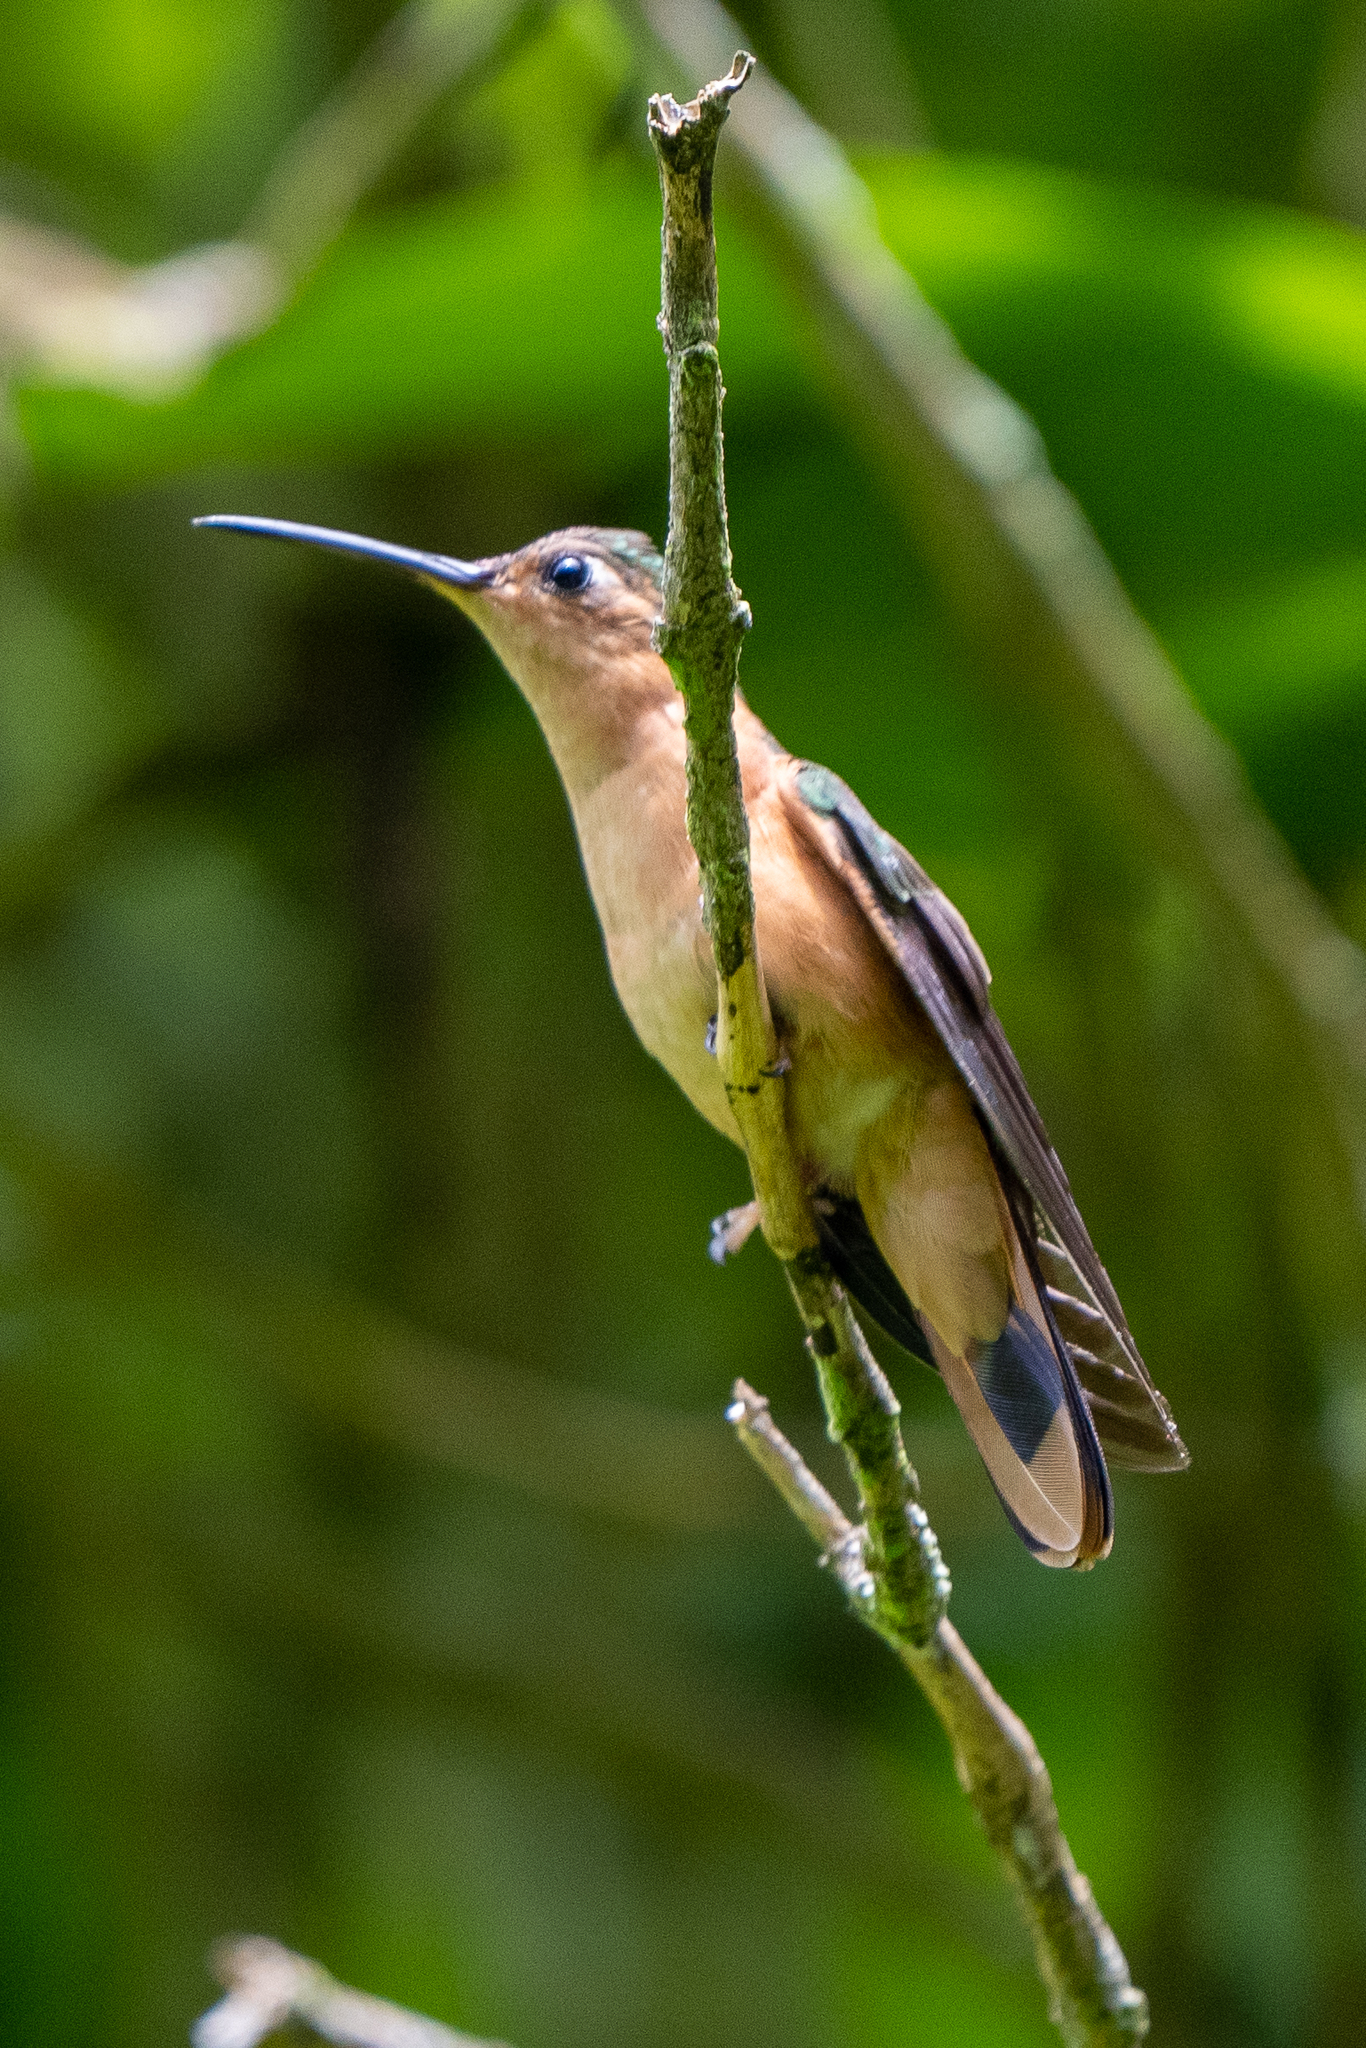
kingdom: Animalia
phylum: Chordata
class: Aves
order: Apodiformes
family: Trochilidae
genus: Pampa
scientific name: Pampa rufa
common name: Rufous sabrewing
